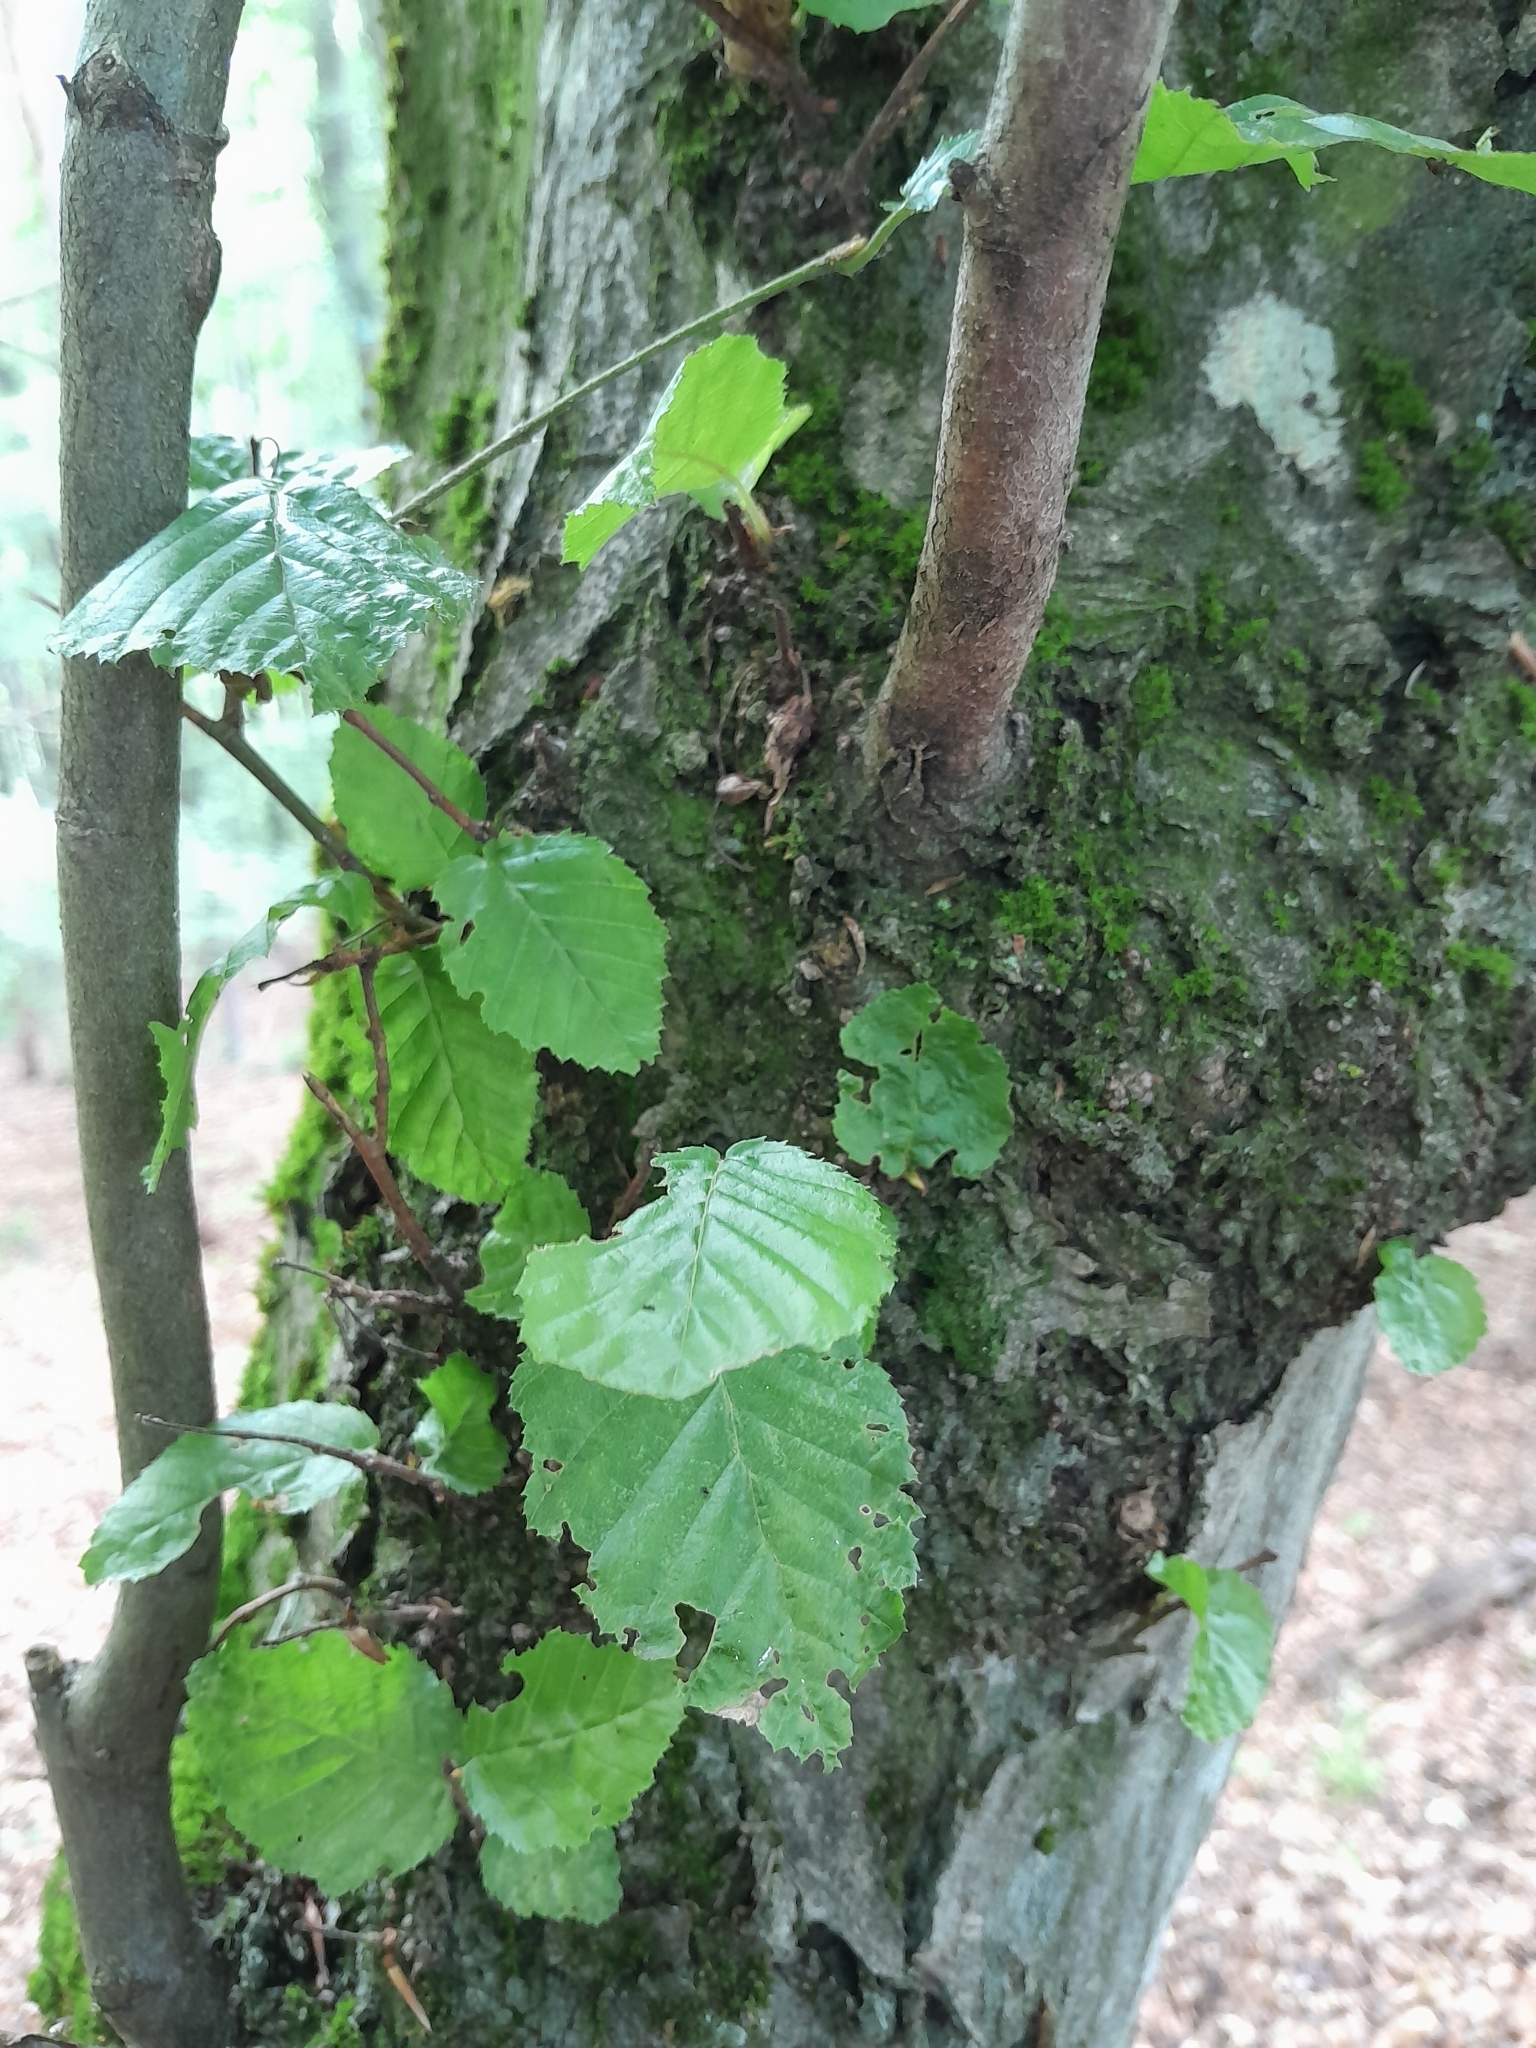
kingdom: Plantae
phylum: Tracheophyta
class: Magnoliopsida
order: Fagales
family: Betulaceae
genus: Carpinus
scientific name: Carpinus betulus
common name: Hornbeam
